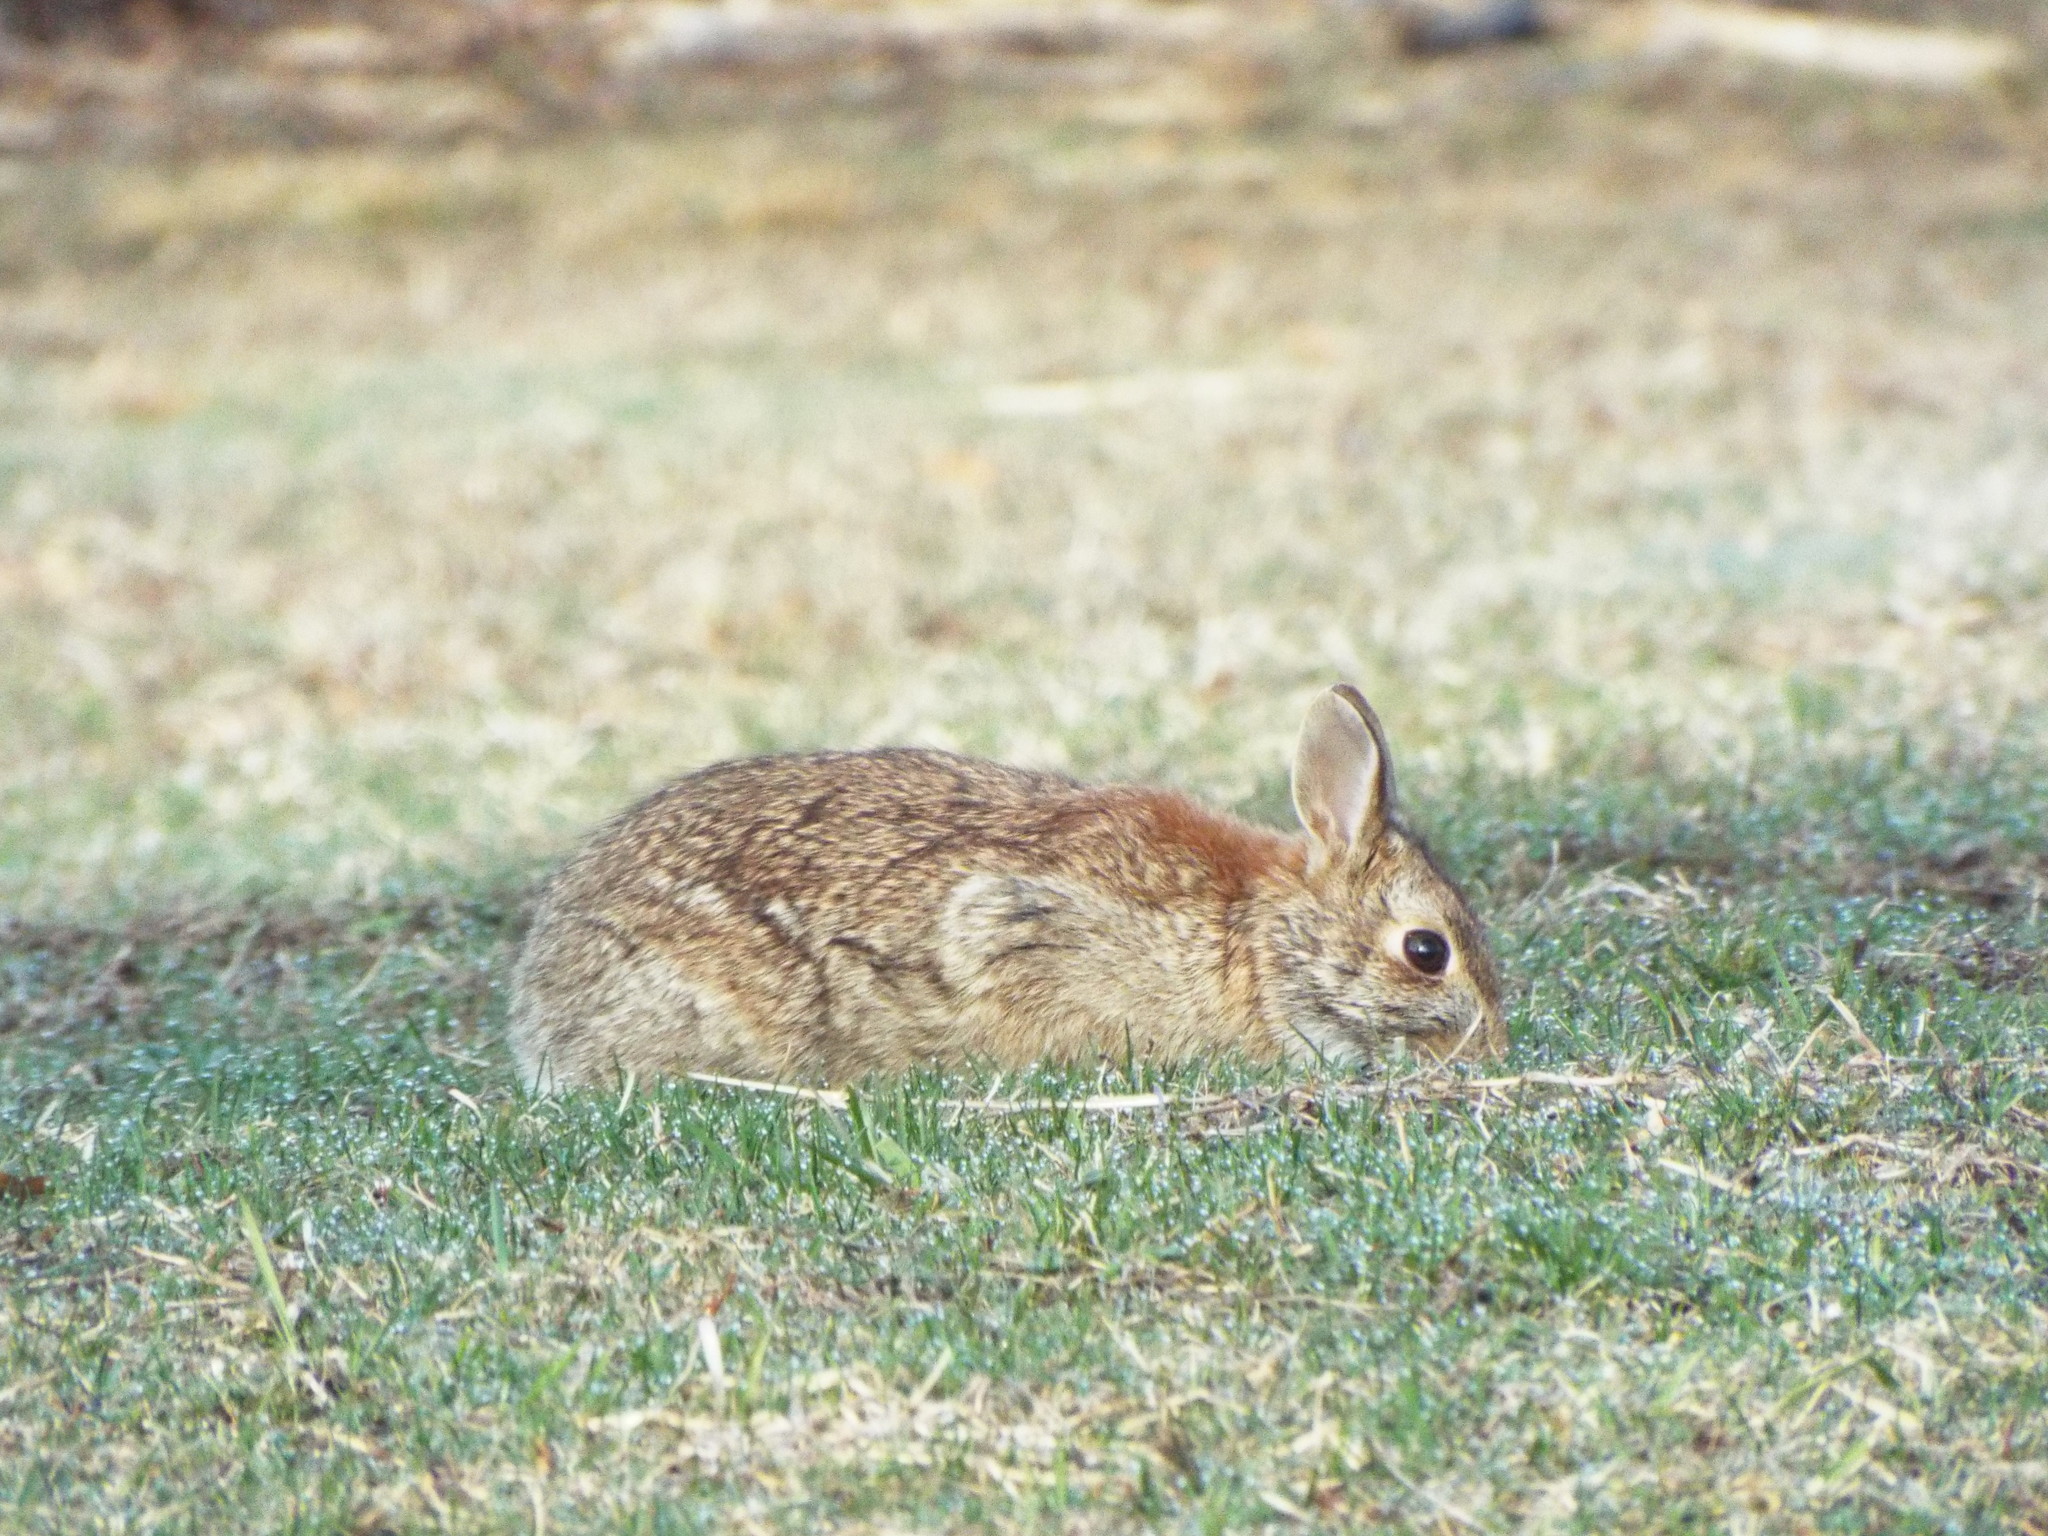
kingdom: Animalia
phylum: Chordata
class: Mammalia
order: Lagomorpha
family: Leporidae
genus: Sylvilagus
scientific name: Sylvilagus floridanus
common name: Eastern cottontail
